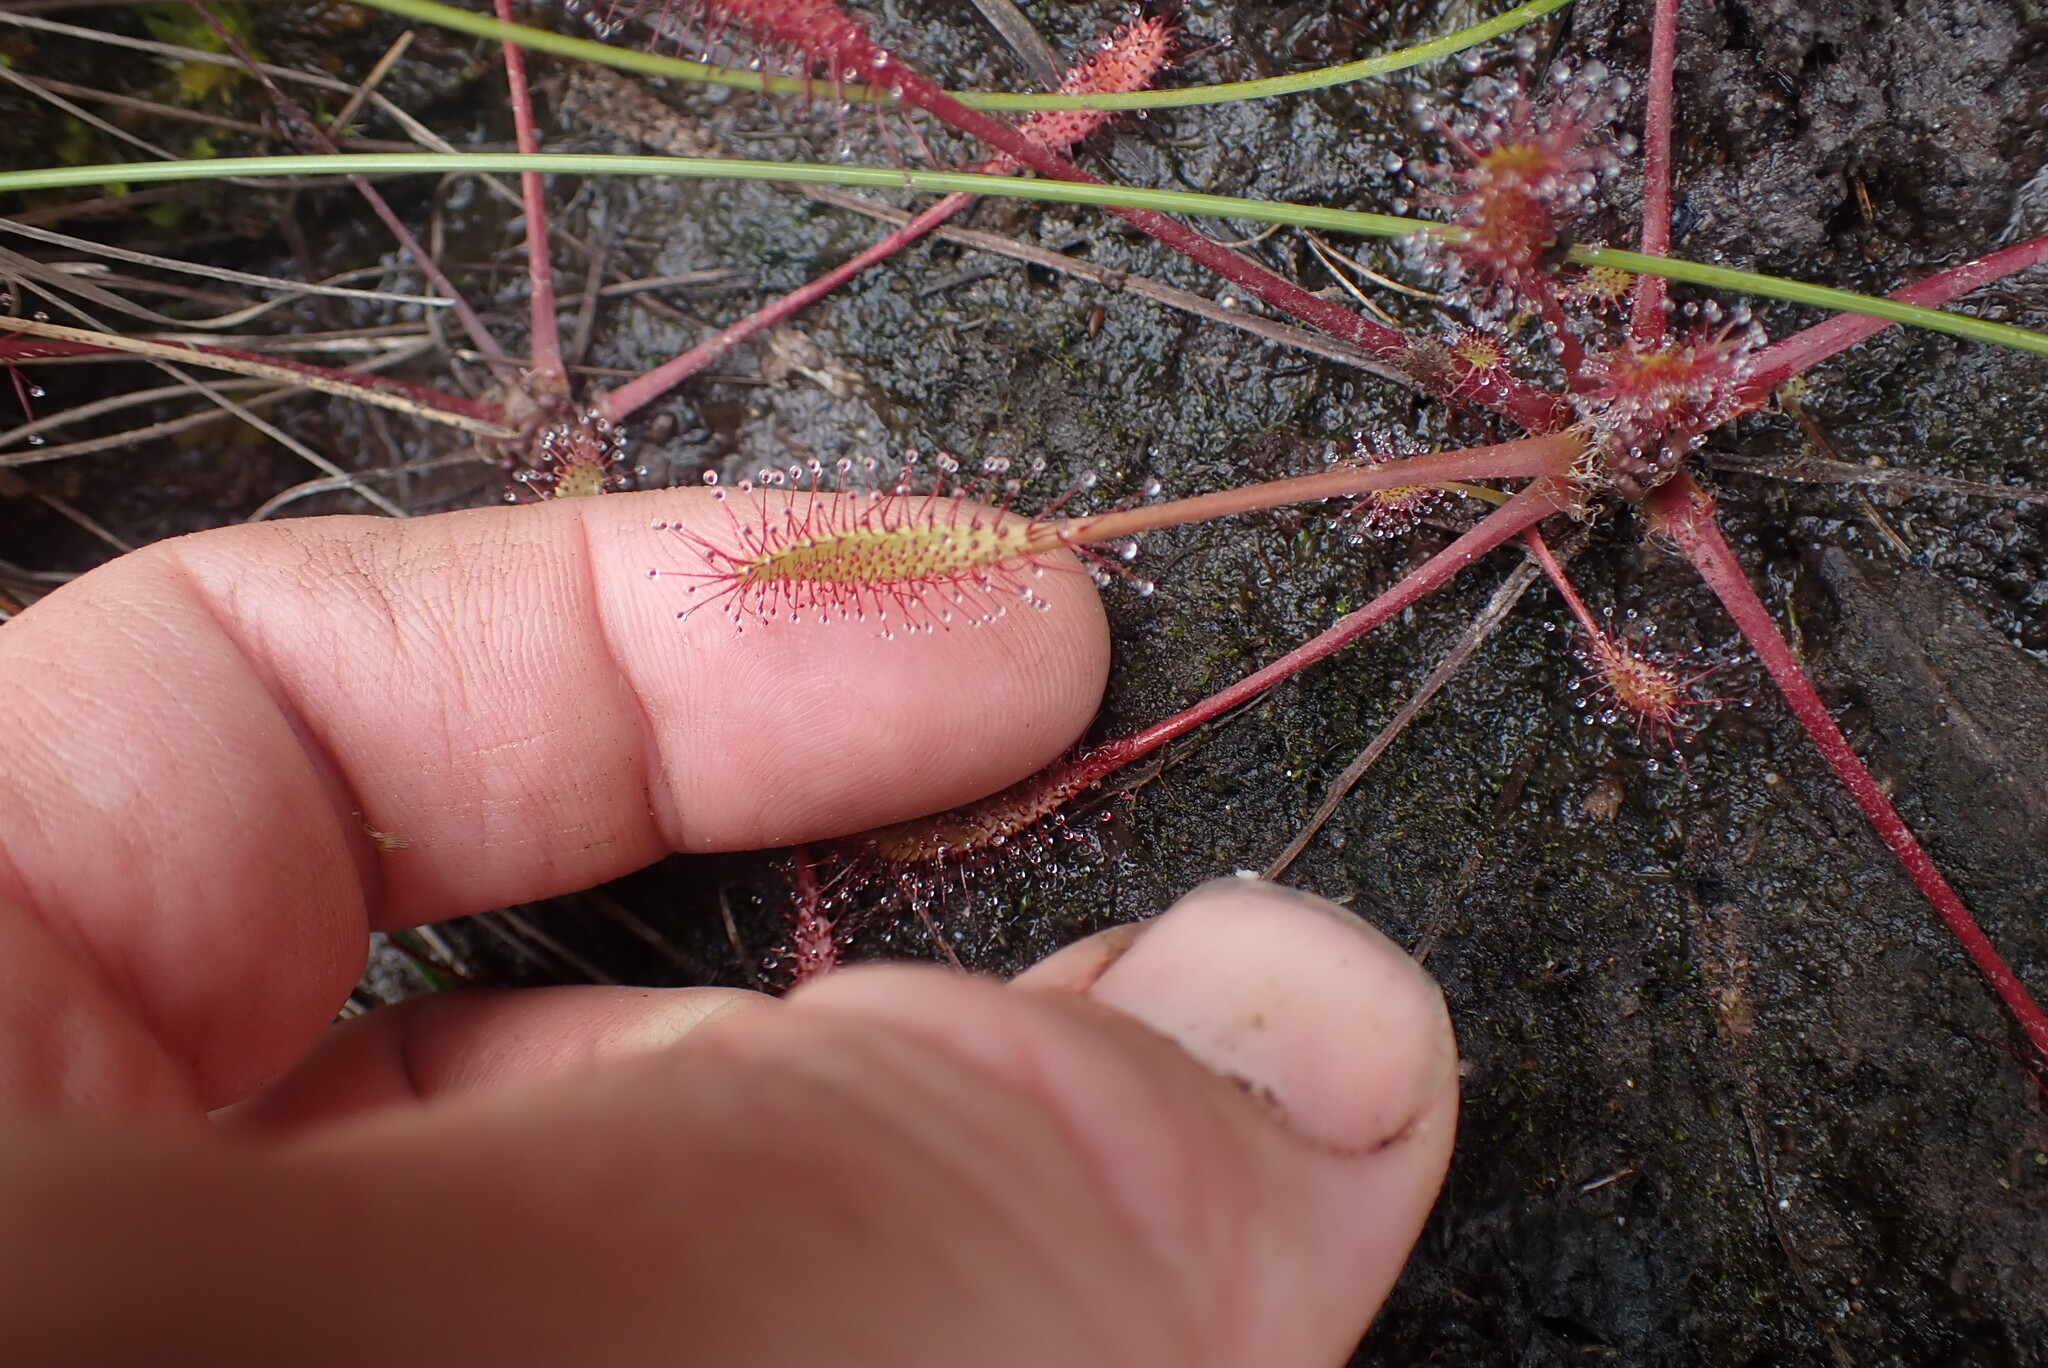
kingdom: Plantae
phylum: Tracheophyta
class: Magnoliopsida
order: Caryophyllales
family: Droseraceae
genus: Drosera
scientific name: Drosera anglica
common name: Great sundew
